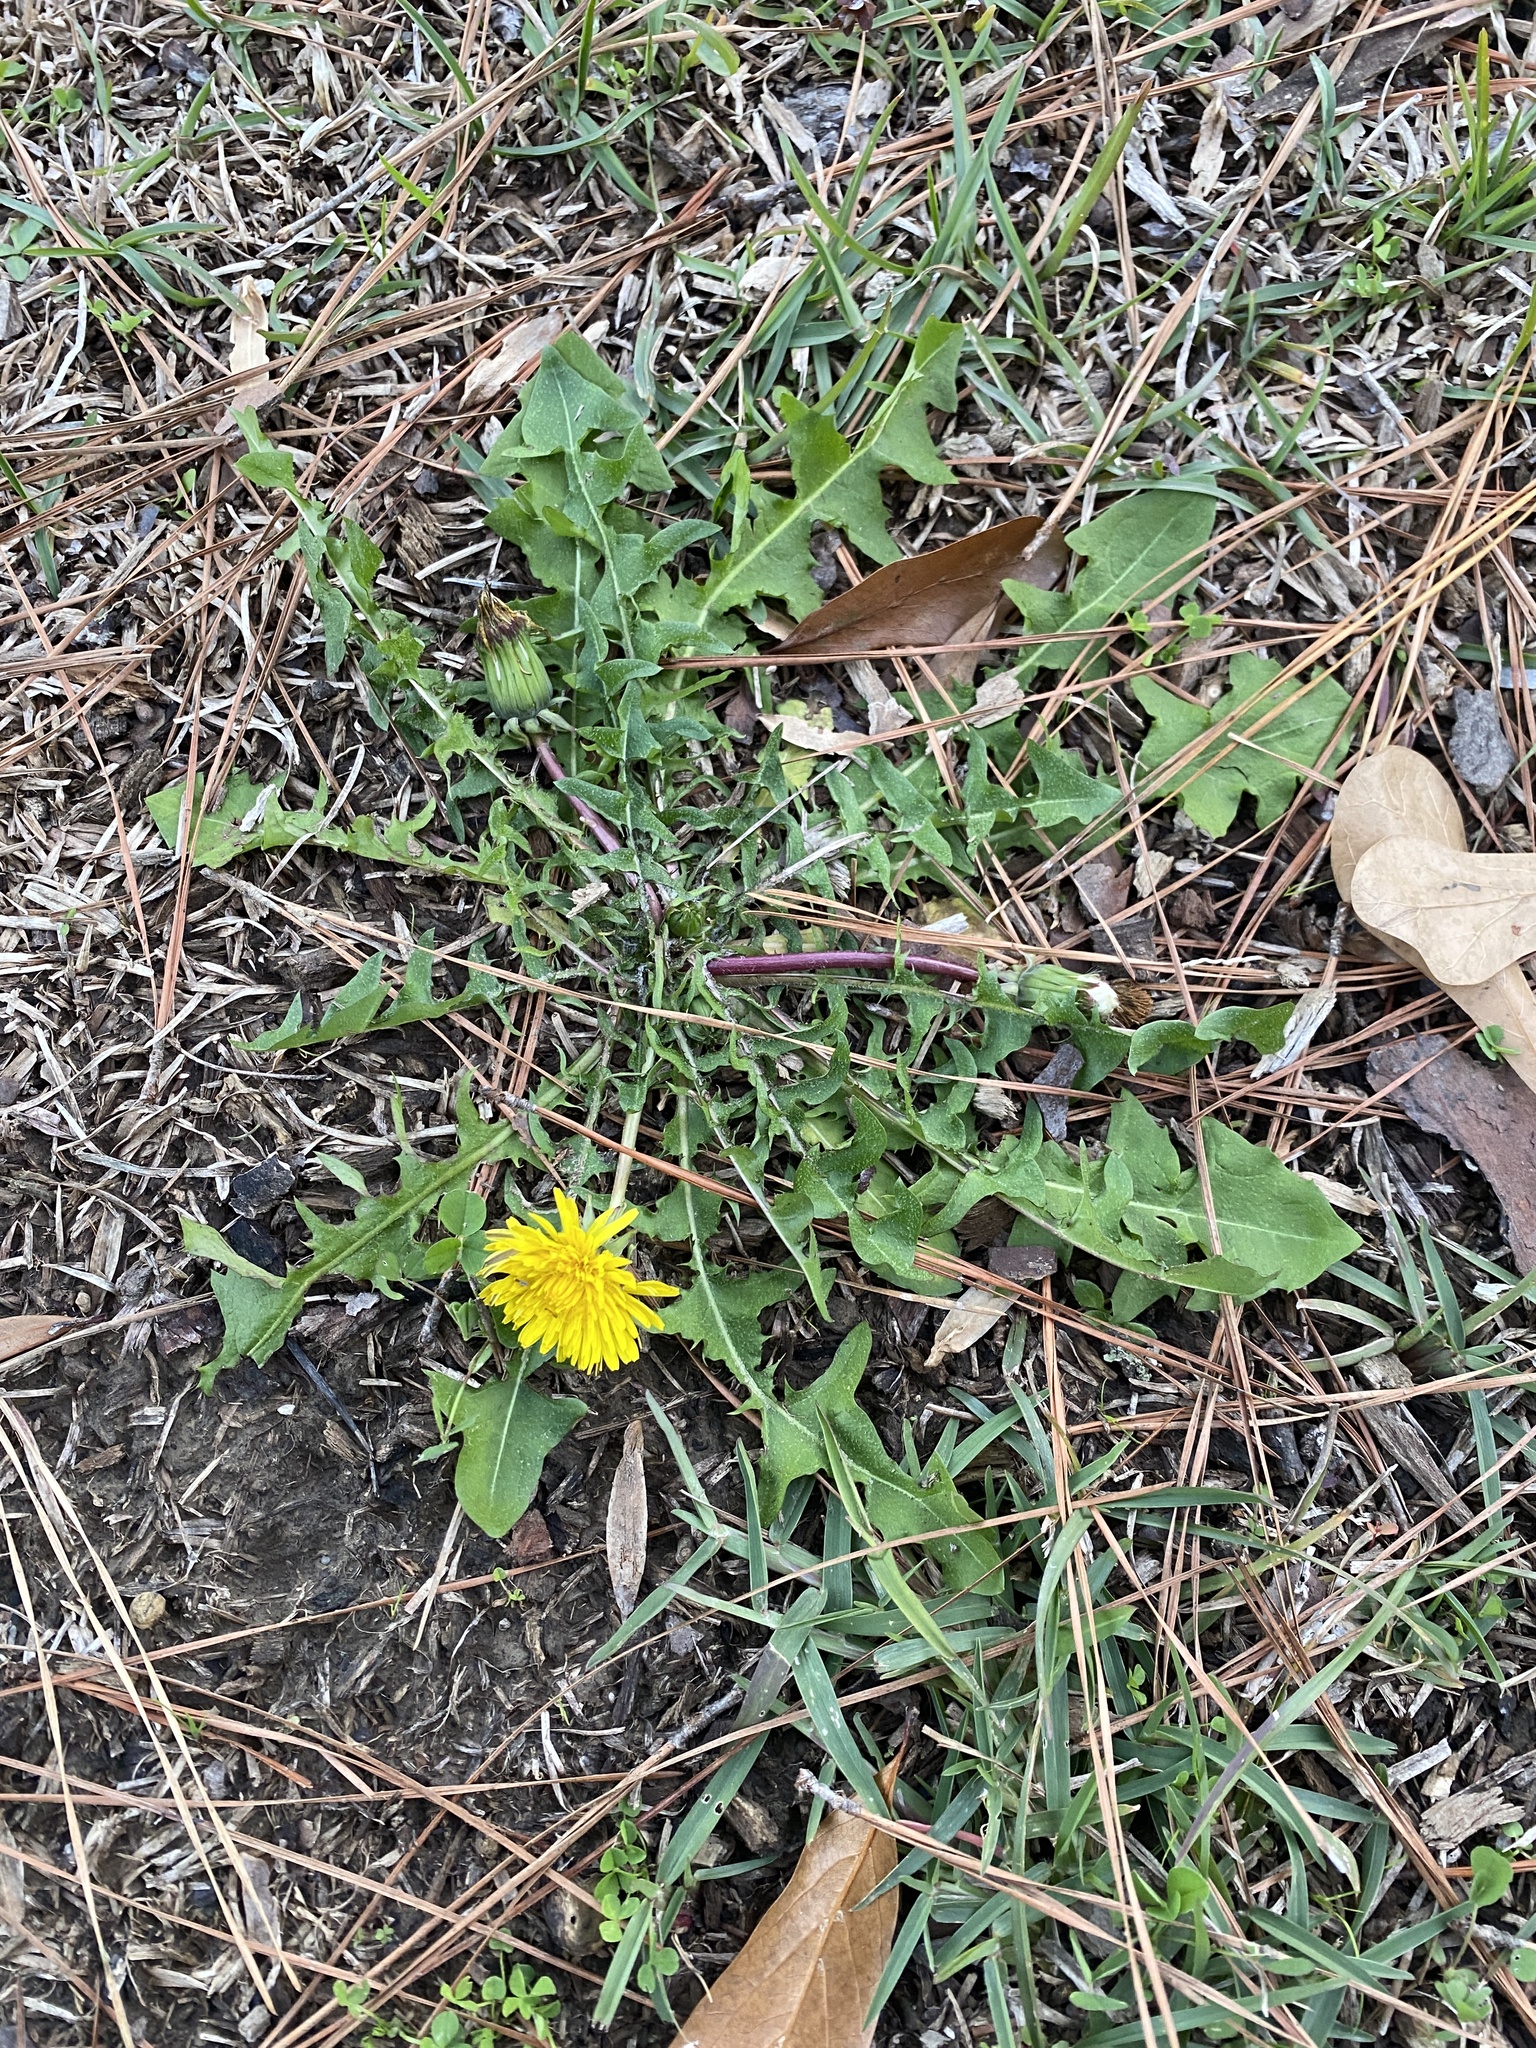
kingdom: Plantae
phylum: Tracheophyta
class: Magnoliopsida
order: Asterales
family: Asteraceae
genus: Taraxacum
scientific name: Taraxacum officinale
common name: Common dandelion
